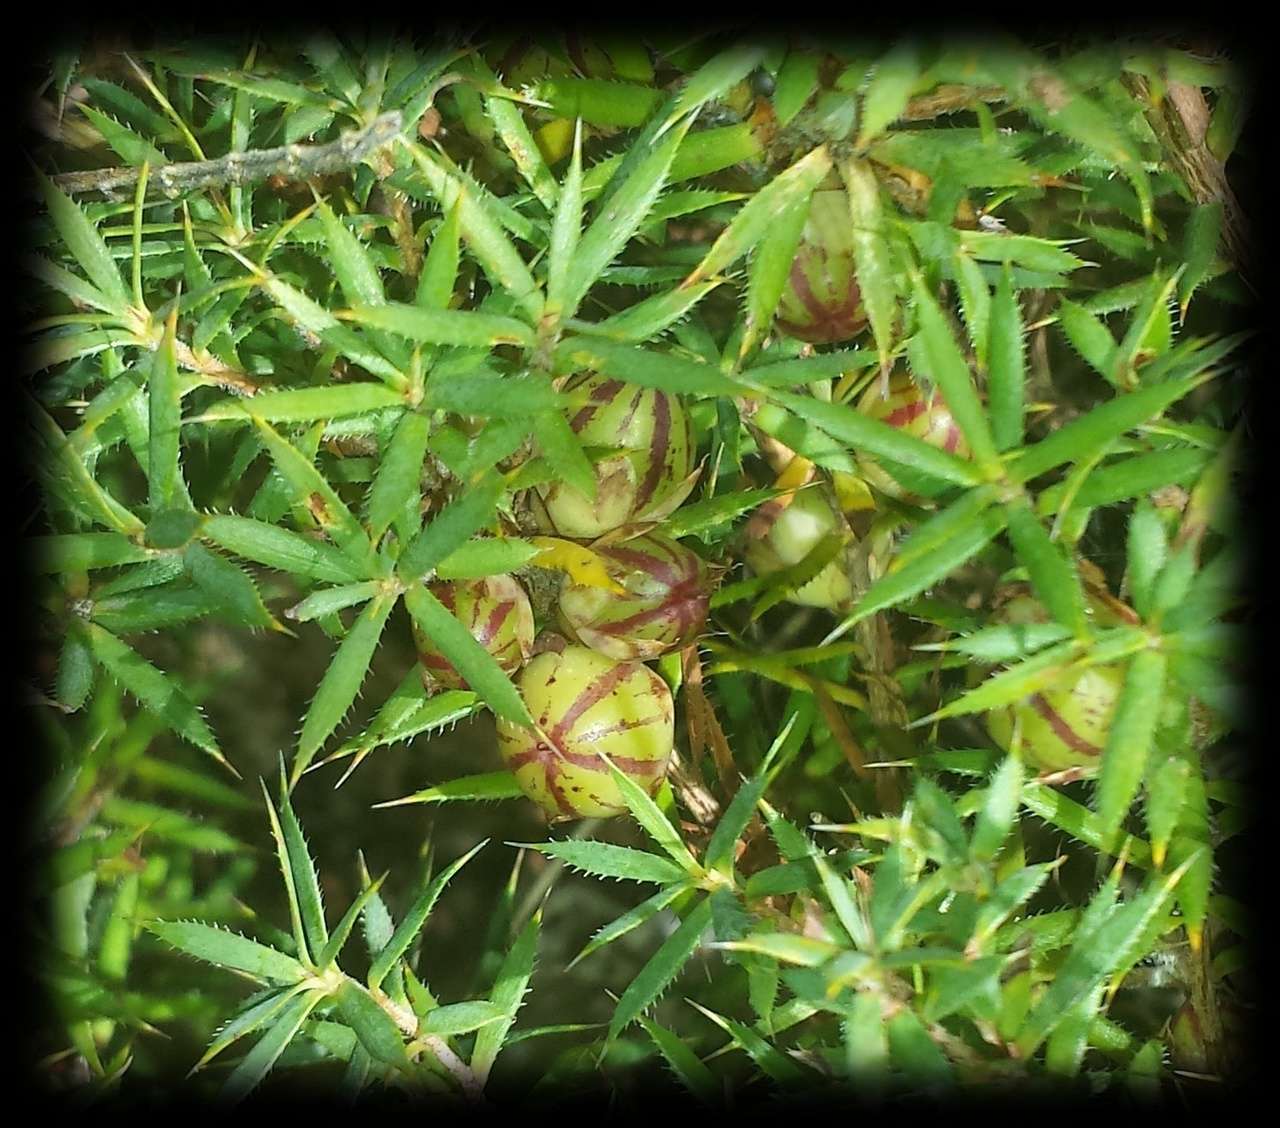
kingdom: Plantae
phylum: Tracheophyta
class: Magnoliopsida
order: Ericales
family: Ericaceae
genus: Styphelia
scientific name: Styphelia humifusa
